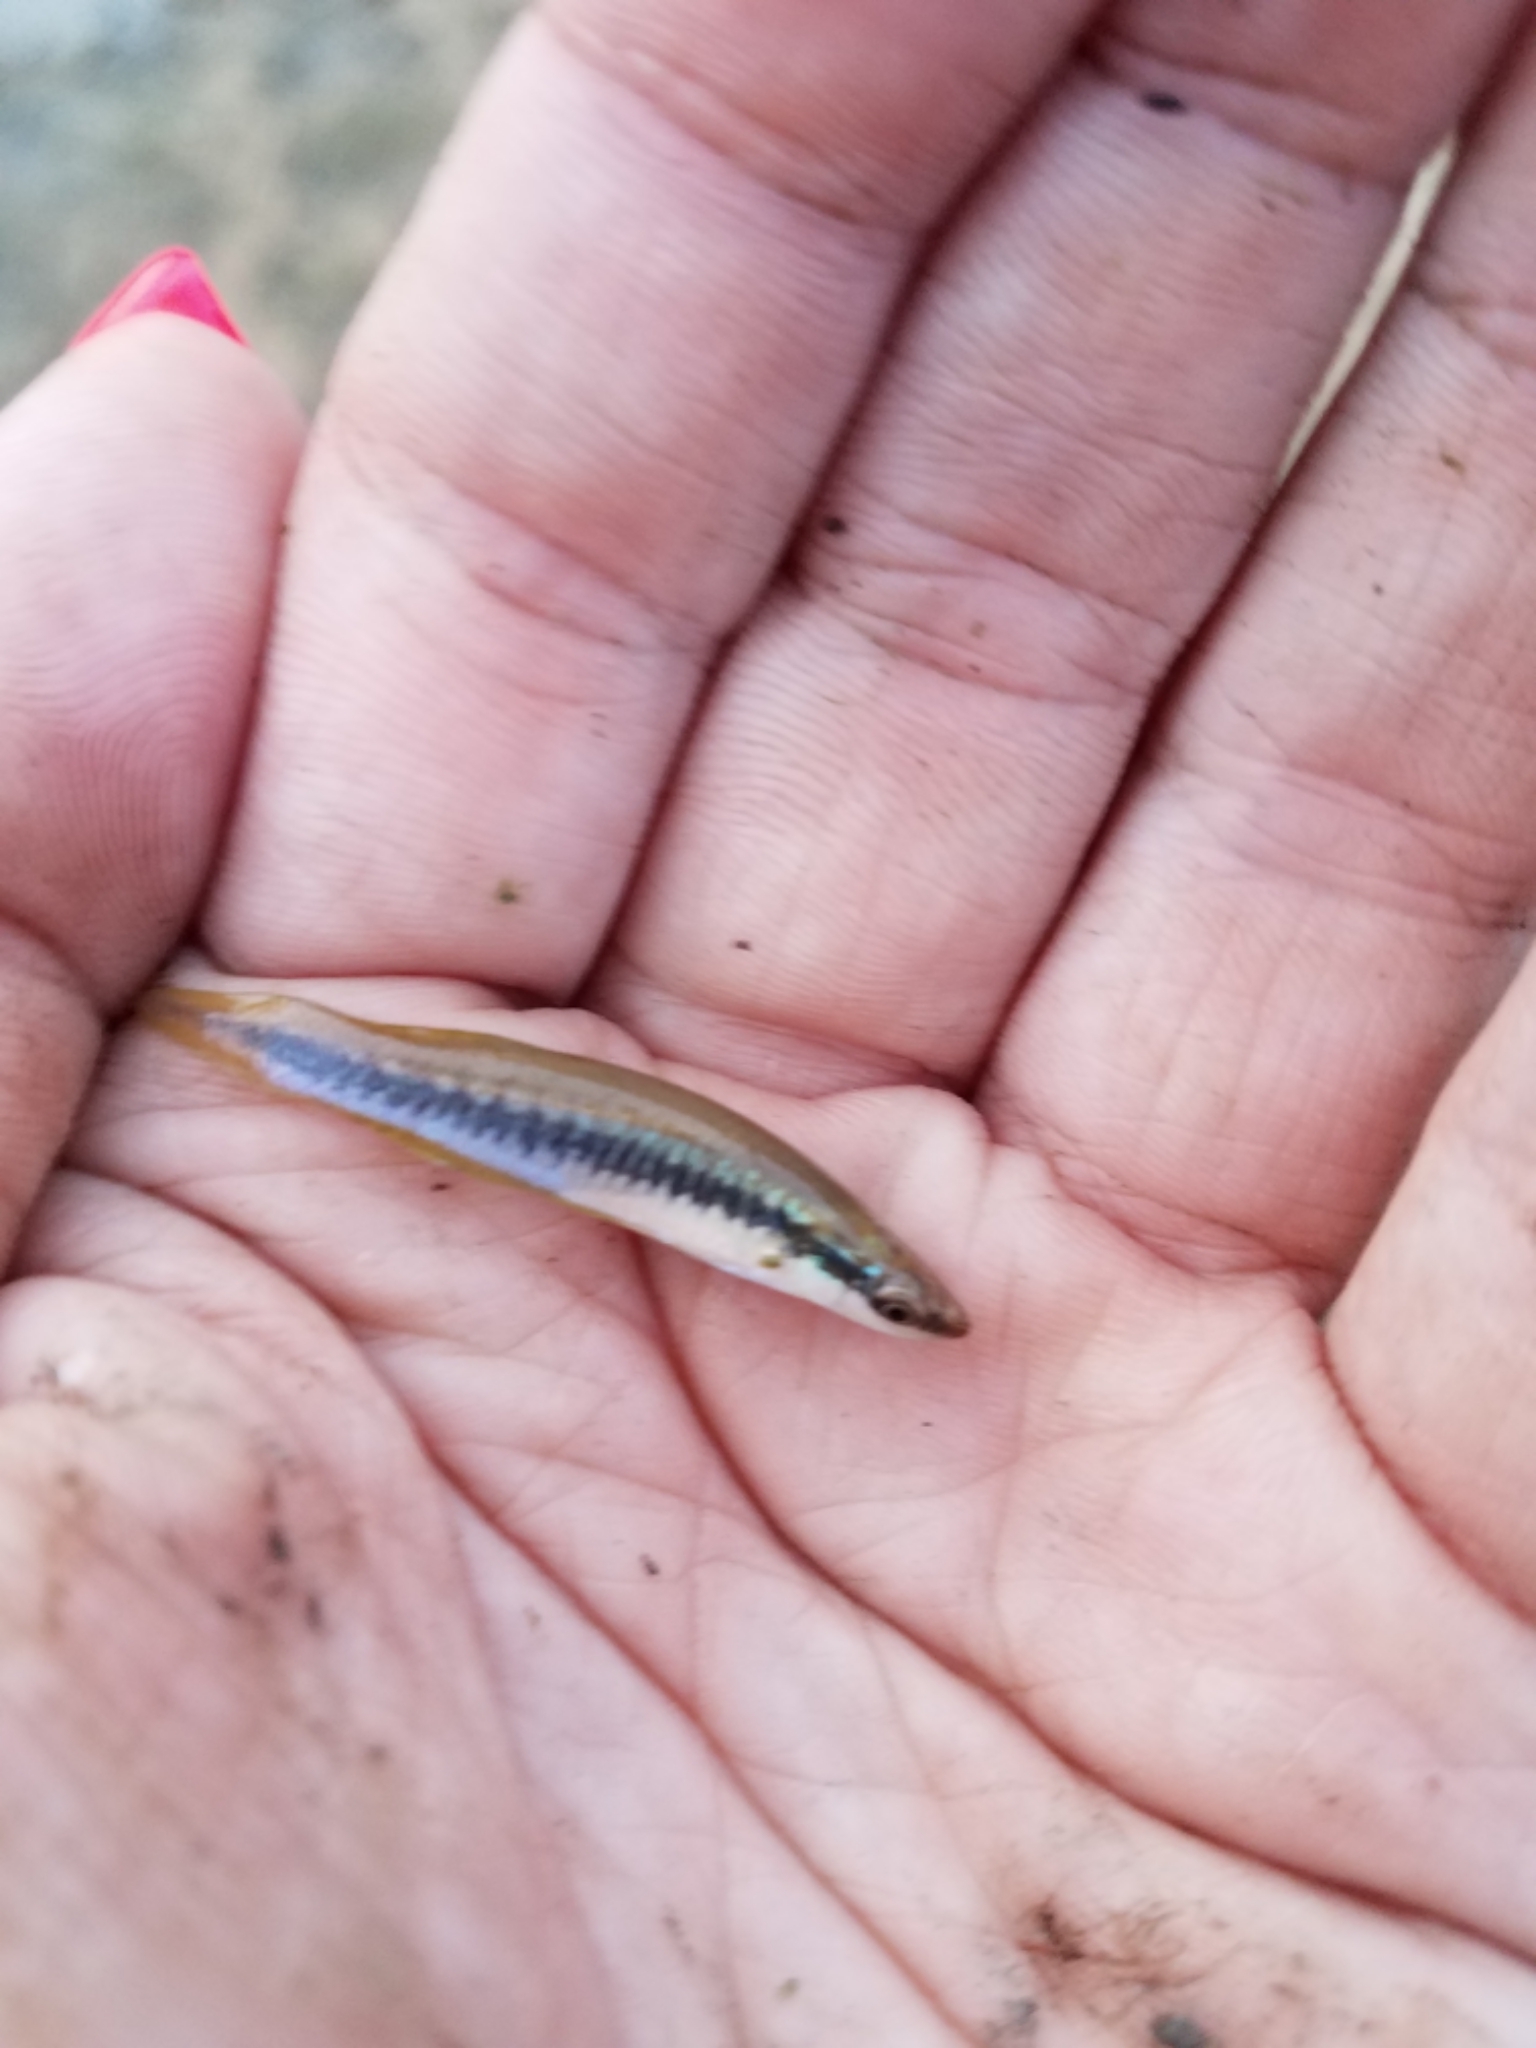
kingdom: Animalia
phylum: Chordata
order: Cyprinodontiformes
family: Fundulidae
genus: Fundulus
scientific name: Fundulus notatus
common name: Blackstripe topminnow
